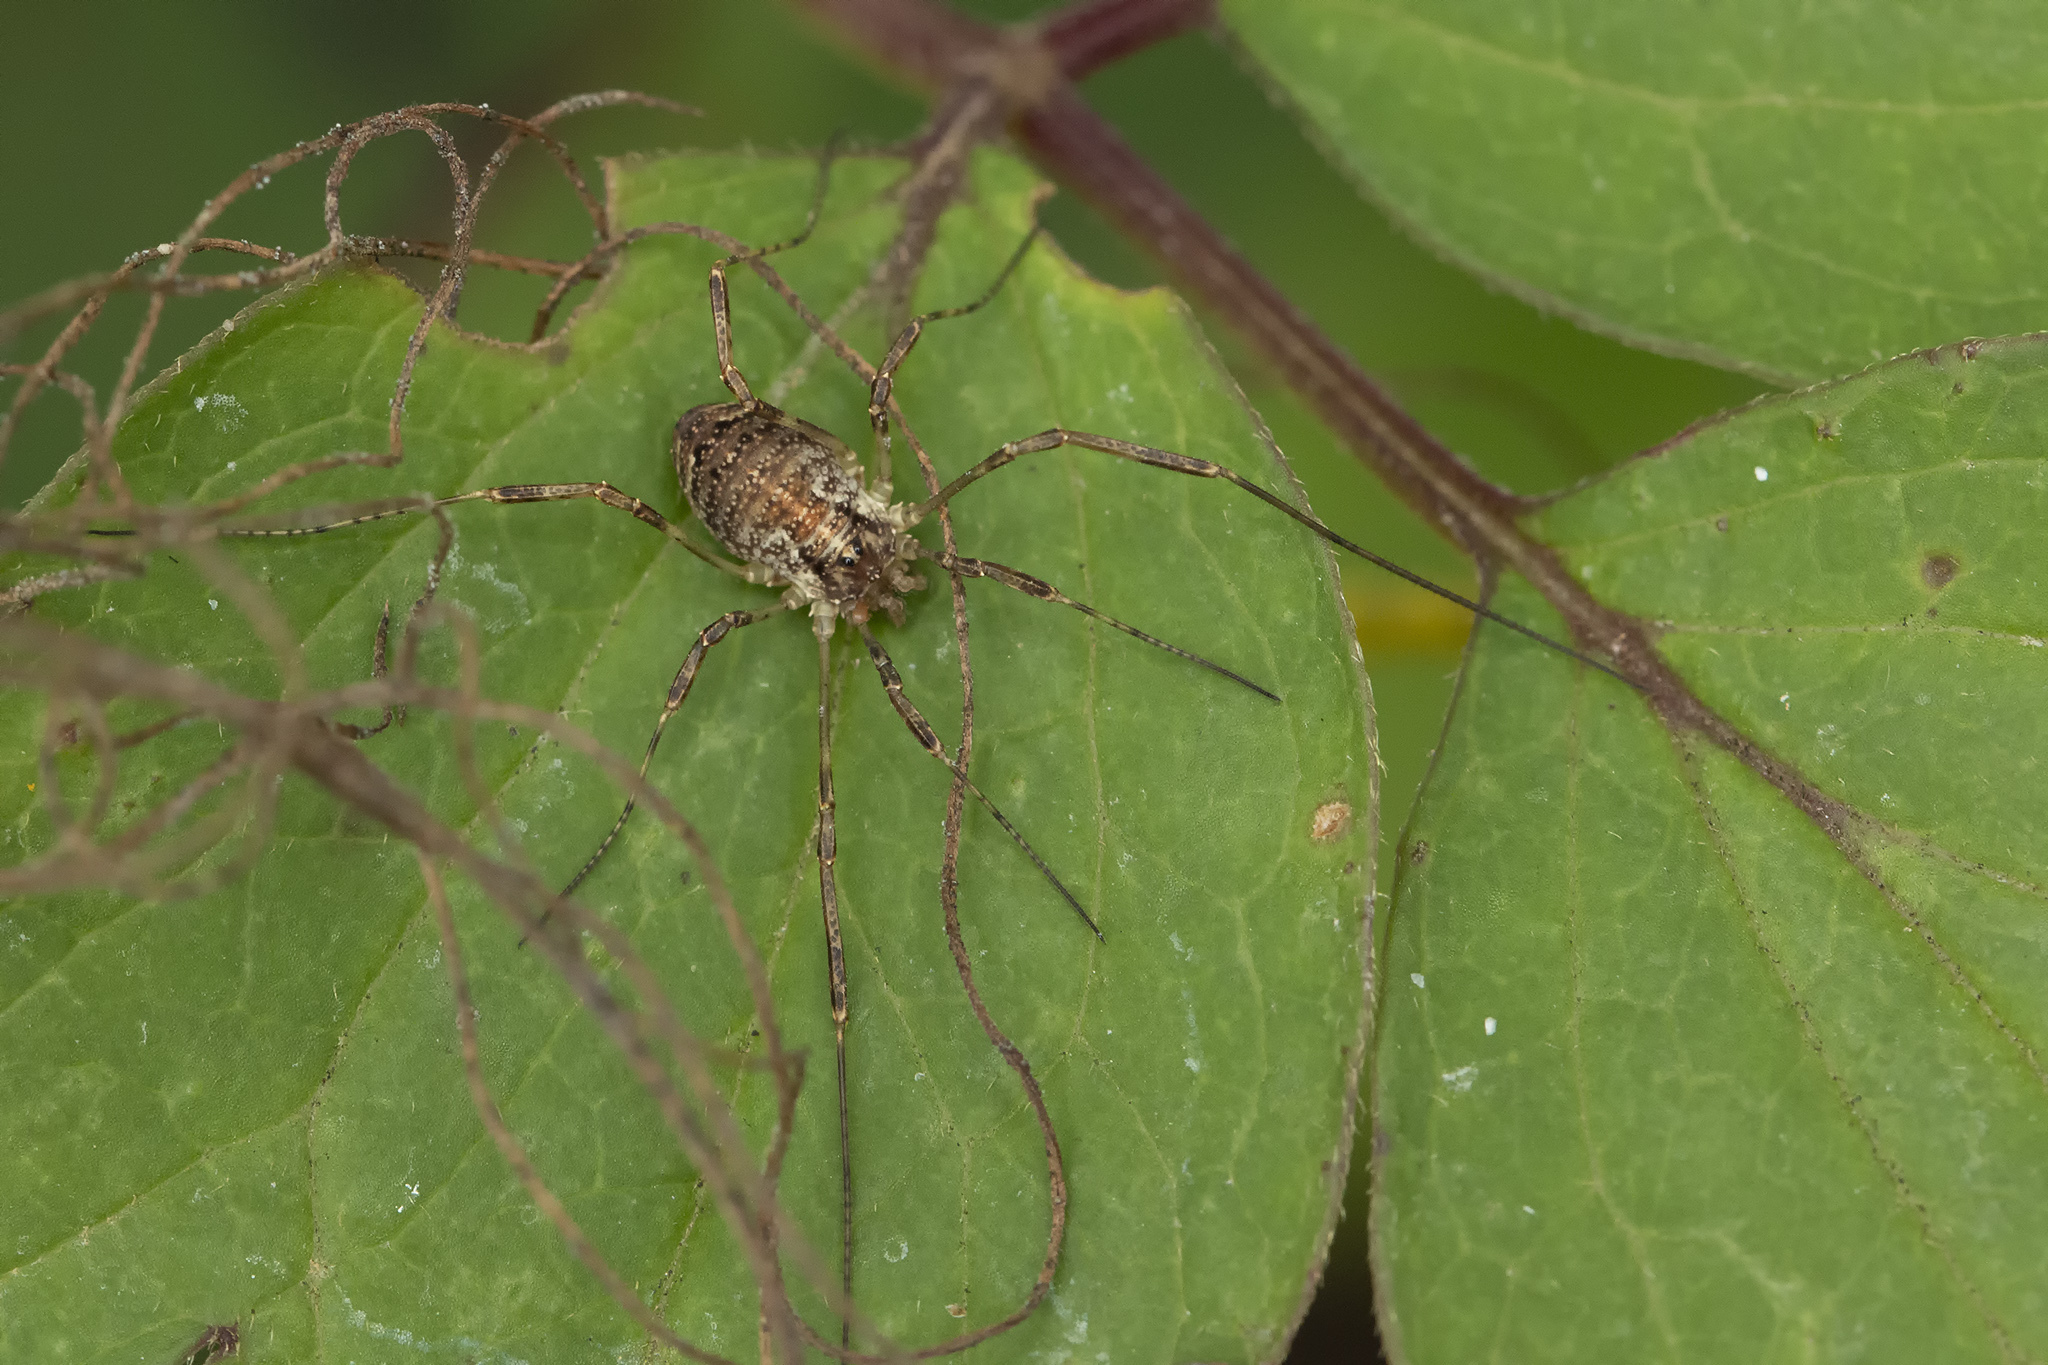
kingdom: Animalia
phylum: Arthropoda
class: Arachnida
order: Opiliones
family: Phalangiidae
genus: Paroligolophus
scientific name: Paroligolophus agrestis
